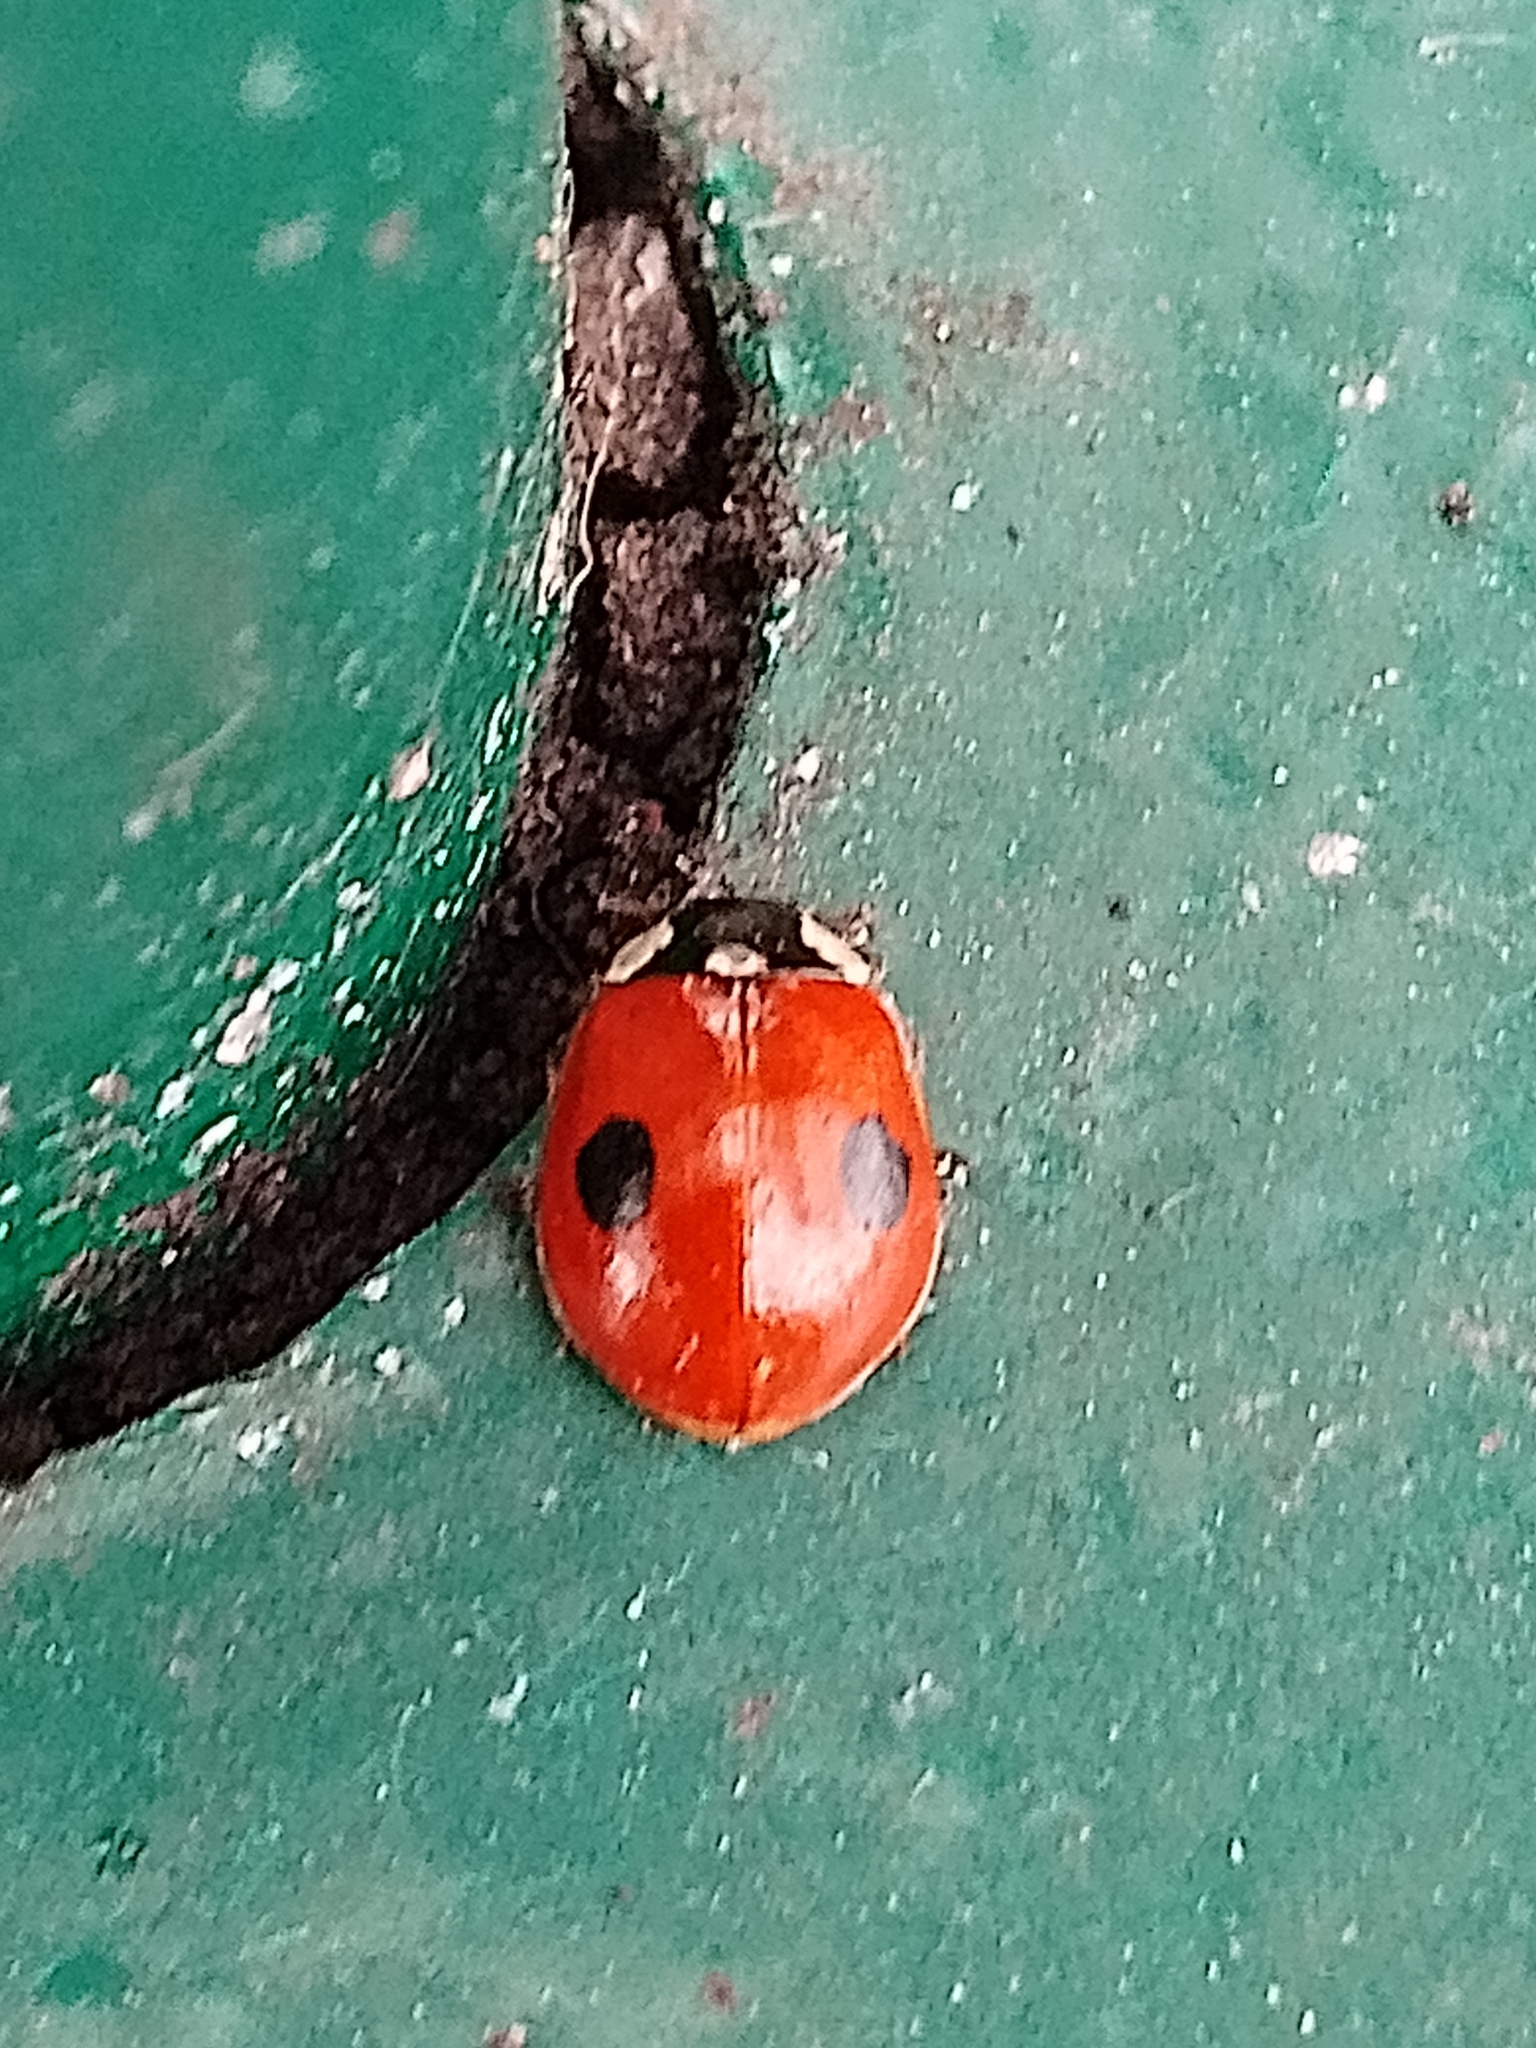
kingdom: Animalia
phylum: Arthropoda
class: Insecta
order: Coleoptera
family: Coccinellidae
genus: Adalia
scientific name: Adalia bipunctata
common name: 2-spot ladybird
